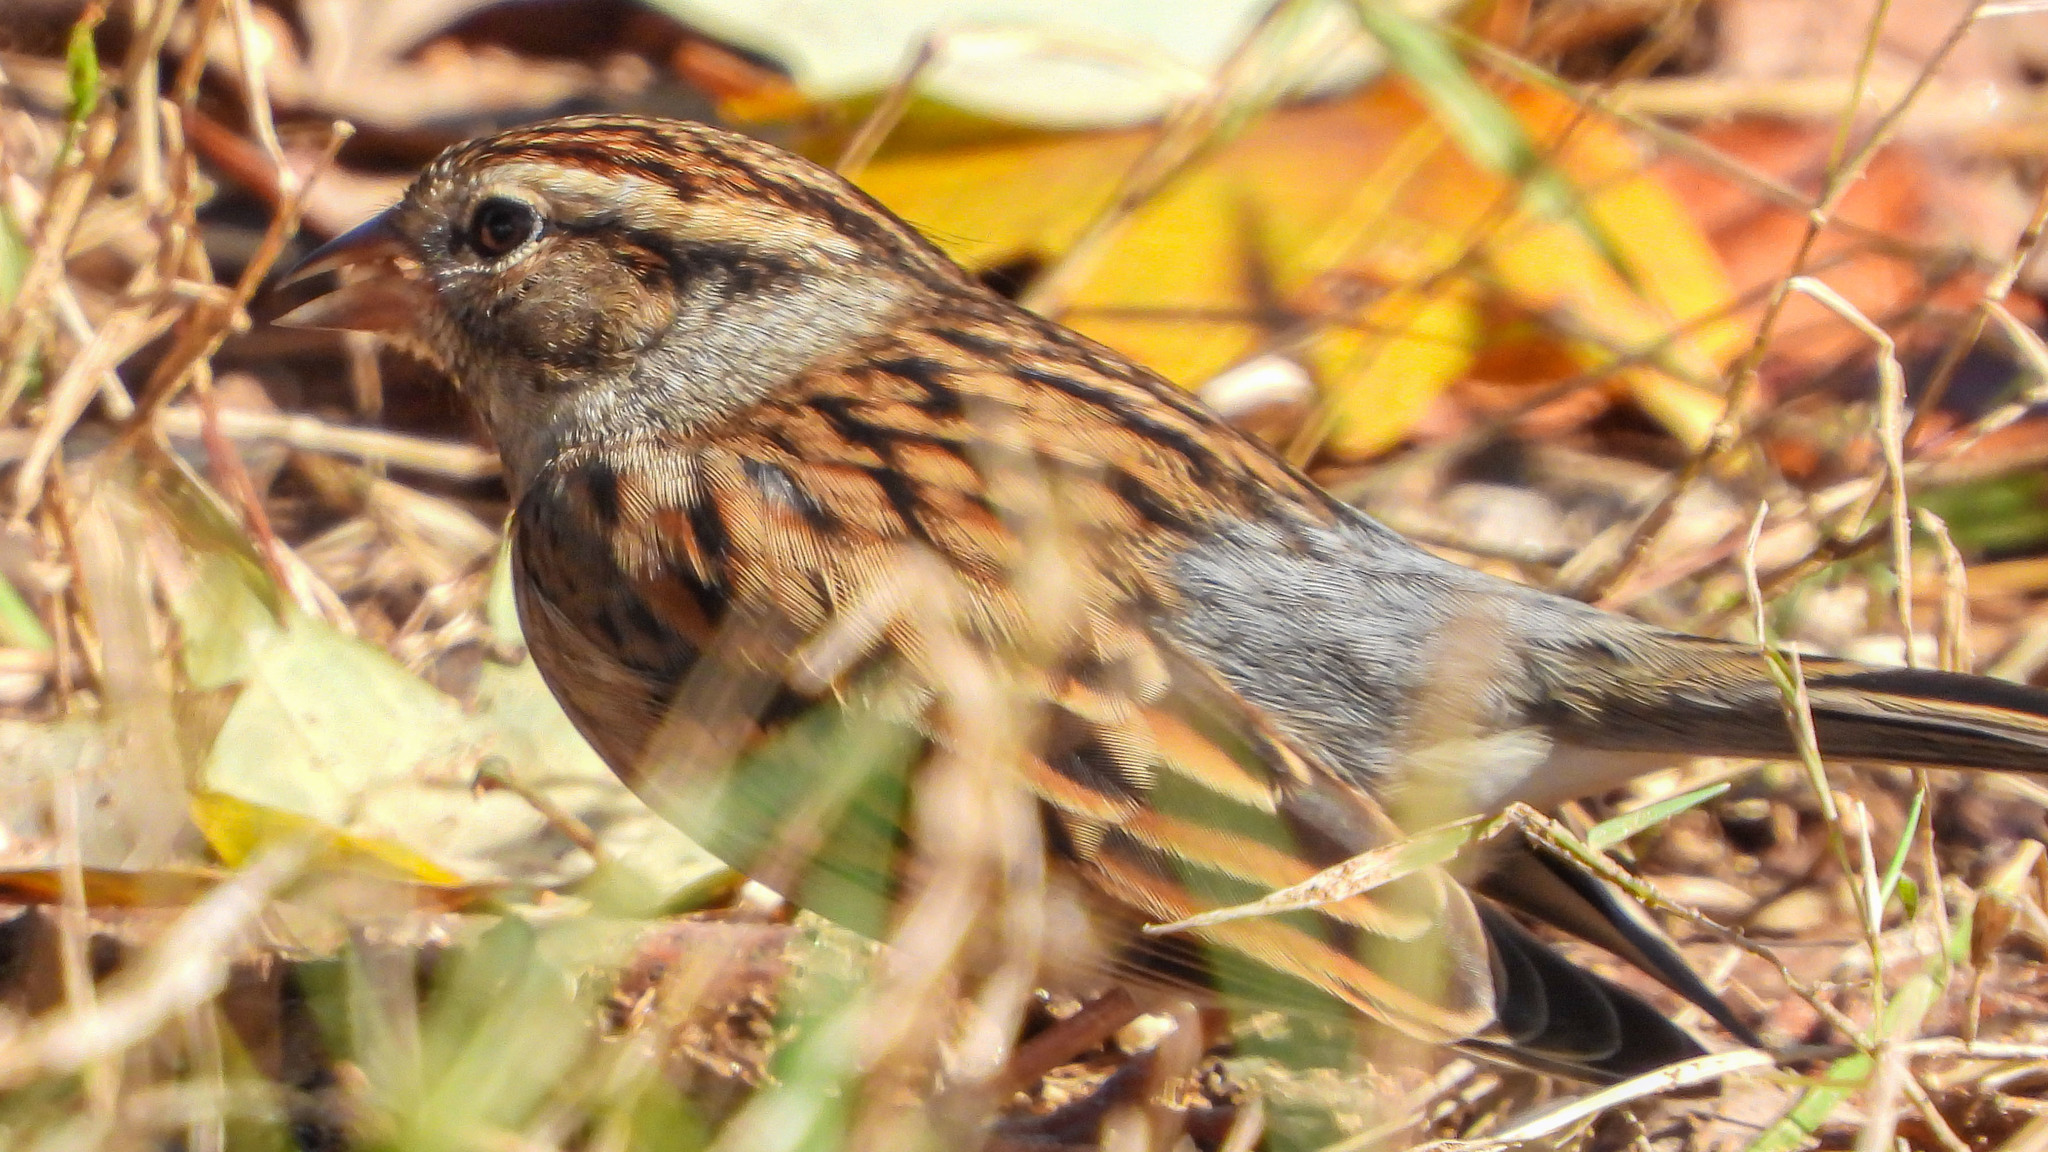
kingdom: Animalia
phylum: Chordata
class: Aves
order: Passeriformes
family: Passerellidae
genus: Spizella
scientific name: Spizella passerina
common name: Chipping sparrow
